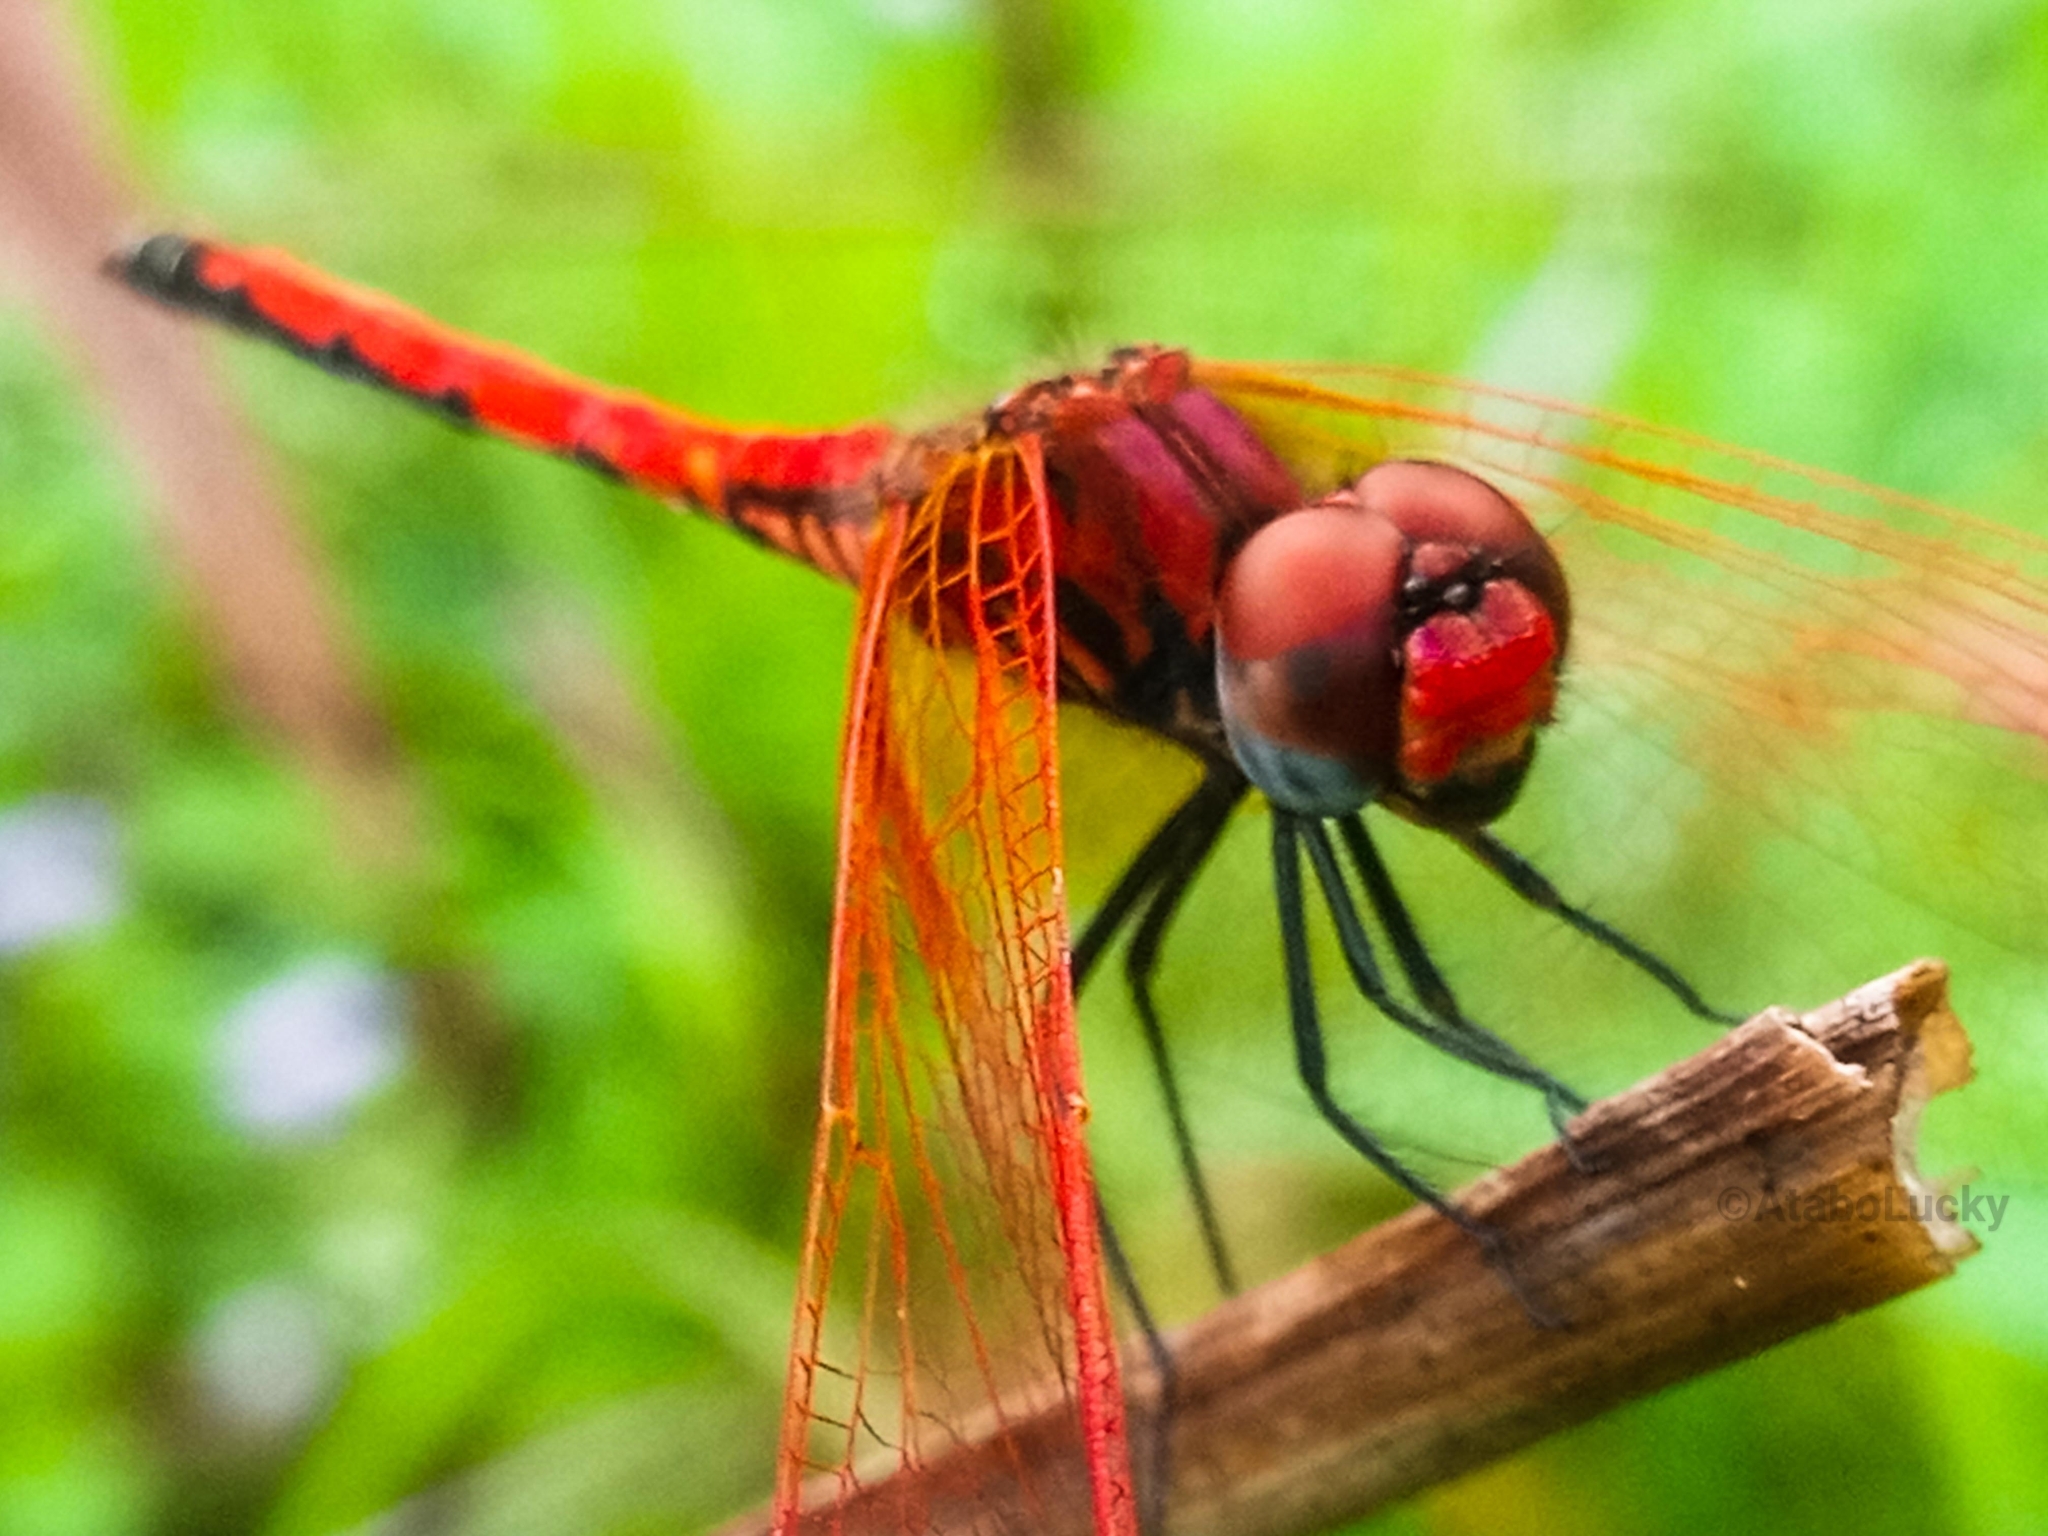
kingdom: Animalia
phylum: Arthropoda
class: Insecta
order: Odonata
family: Libellulidae
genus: Trithemis
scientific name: Trithemis arteriosa
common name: Red-veined dropwing
